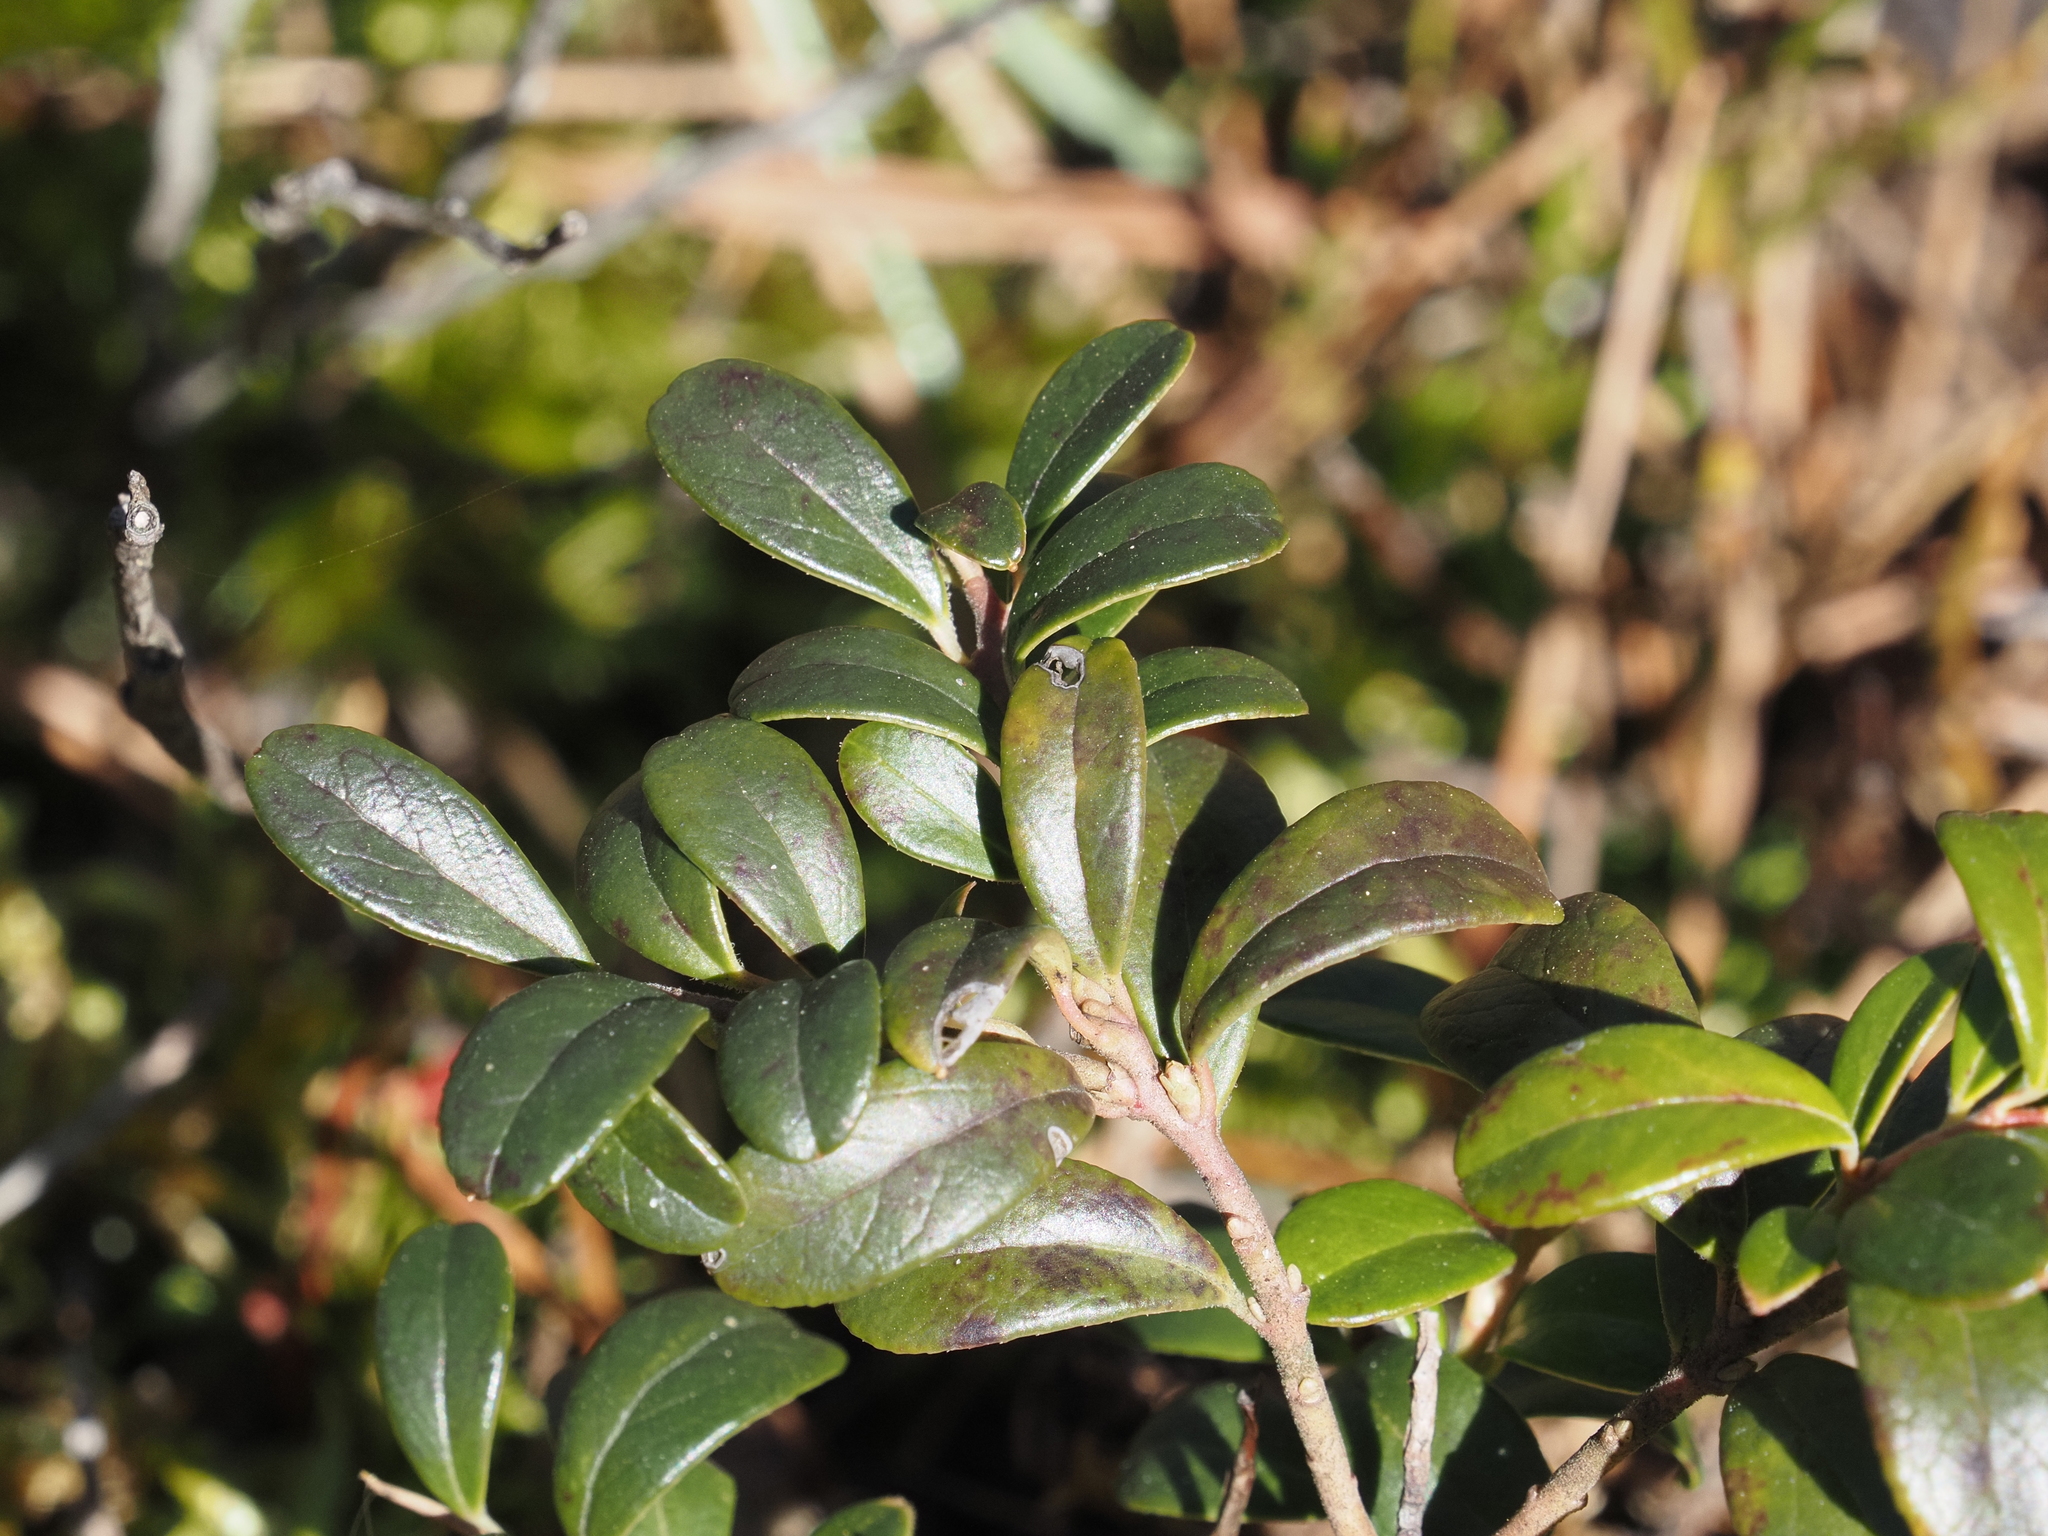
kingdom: Plantae
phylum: Tracheophyta
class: Magnoliopsida
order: Ericales
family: Ericaceae
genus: Vaccinium
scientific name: Vaccinium vitis-idaea
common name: Cowberry
